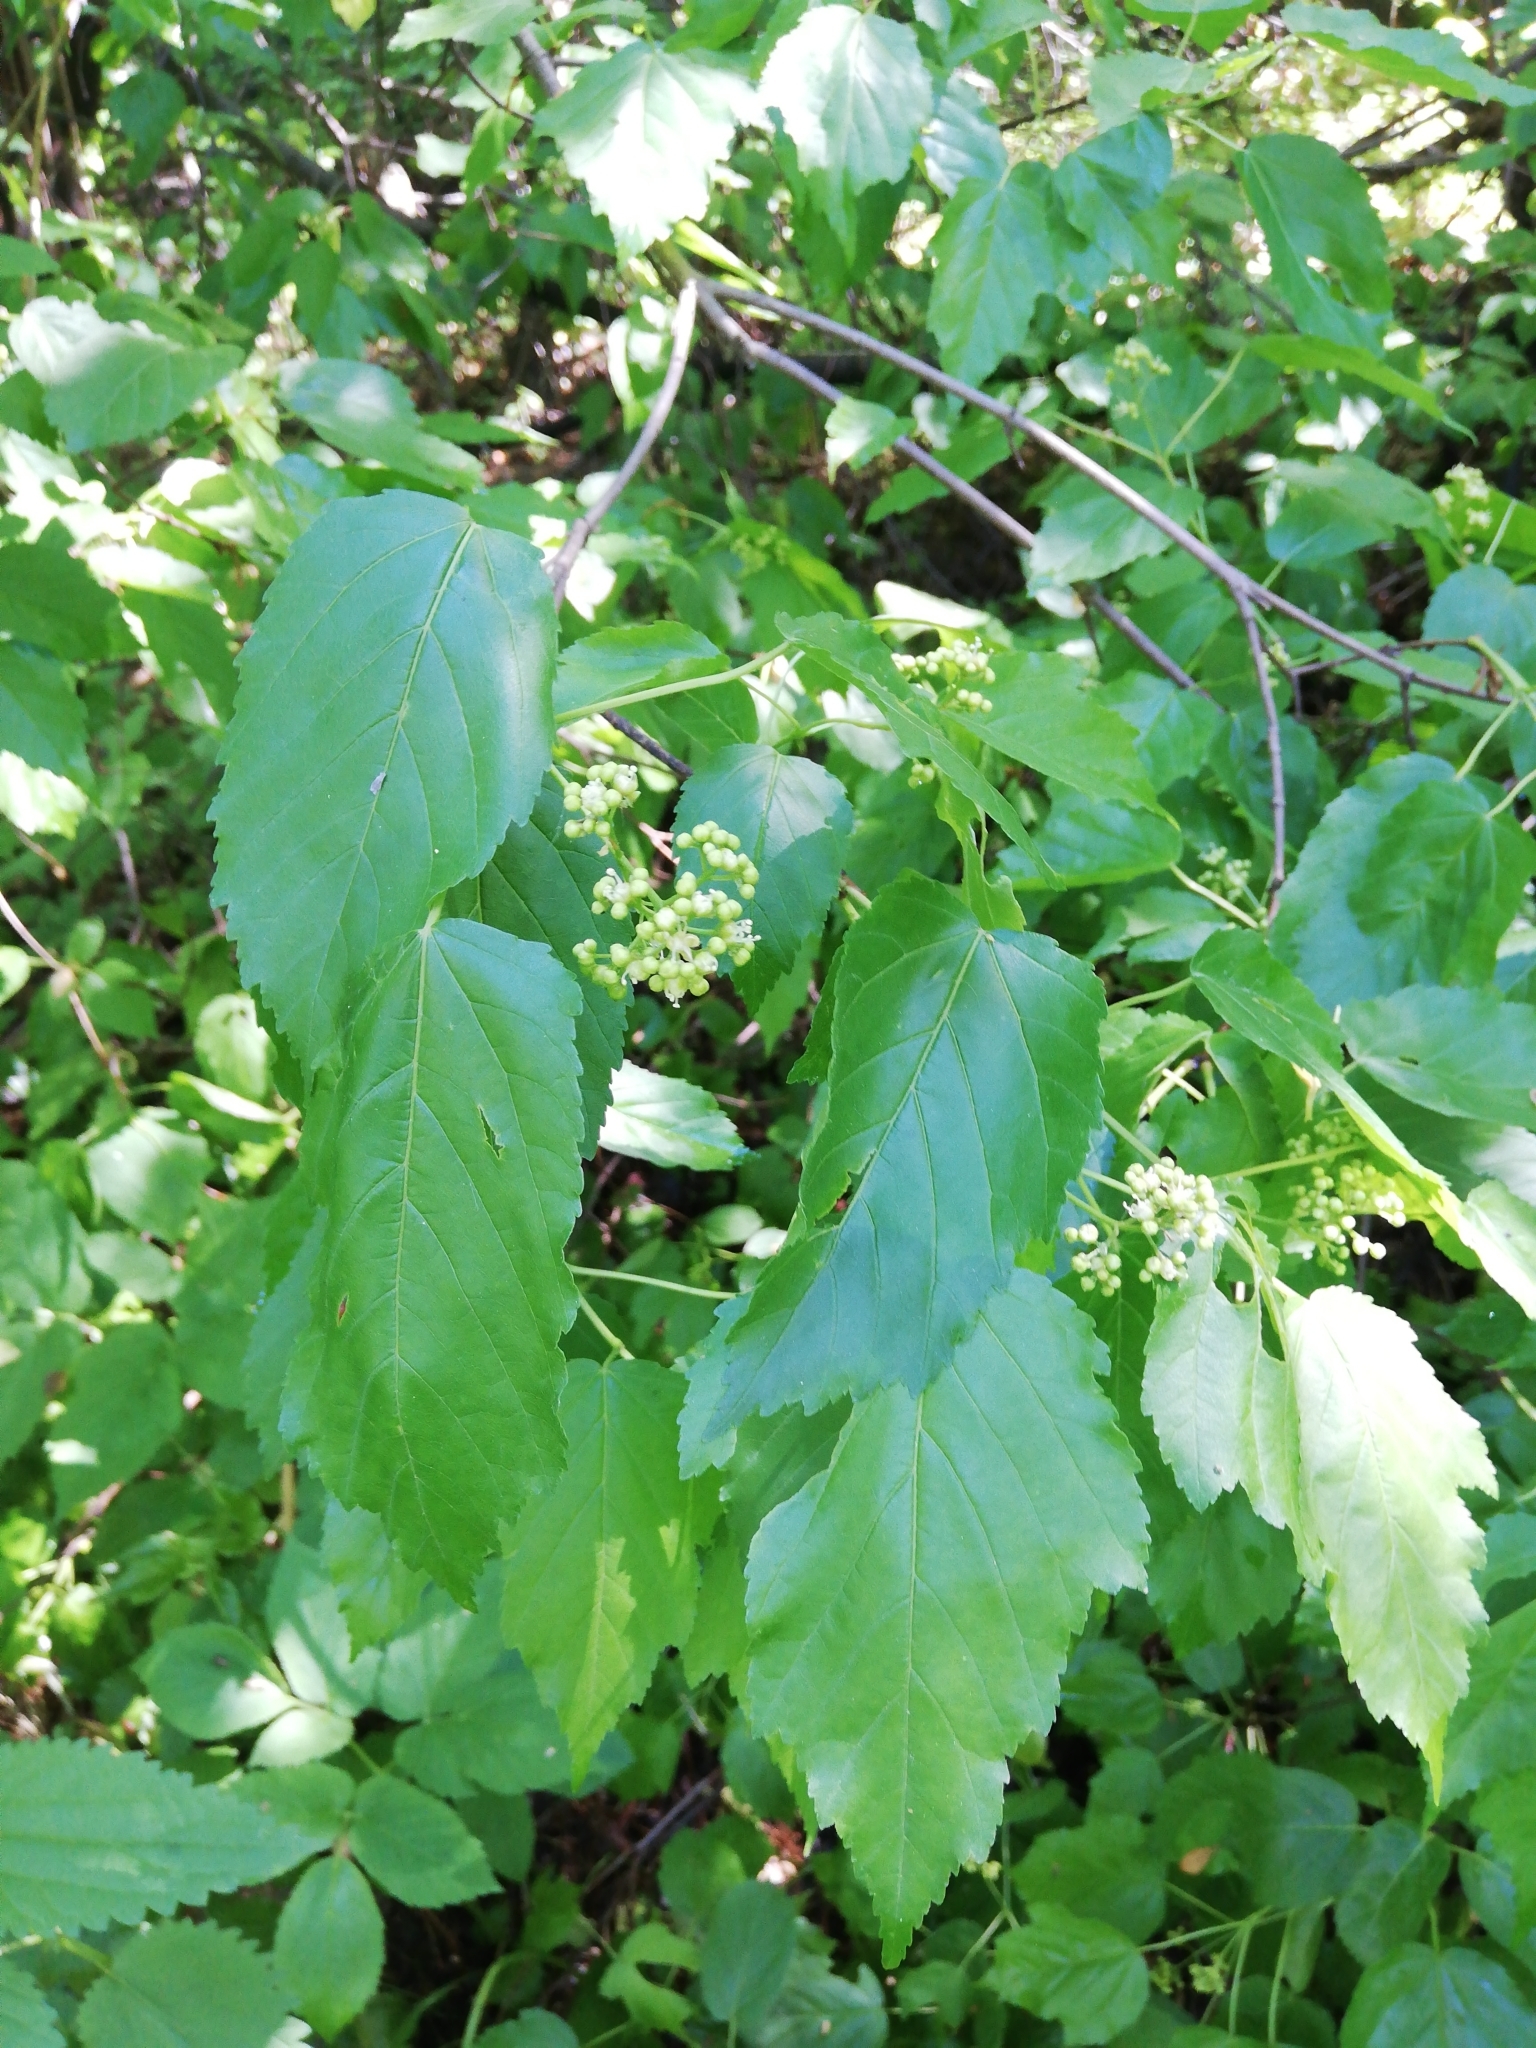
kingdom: Plantae
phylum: Tracheophyta
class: Magnoliopsida
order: Sapindales
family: Sapindaceae
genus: Acer
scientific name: Acer tataricum
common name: Tartar maple
